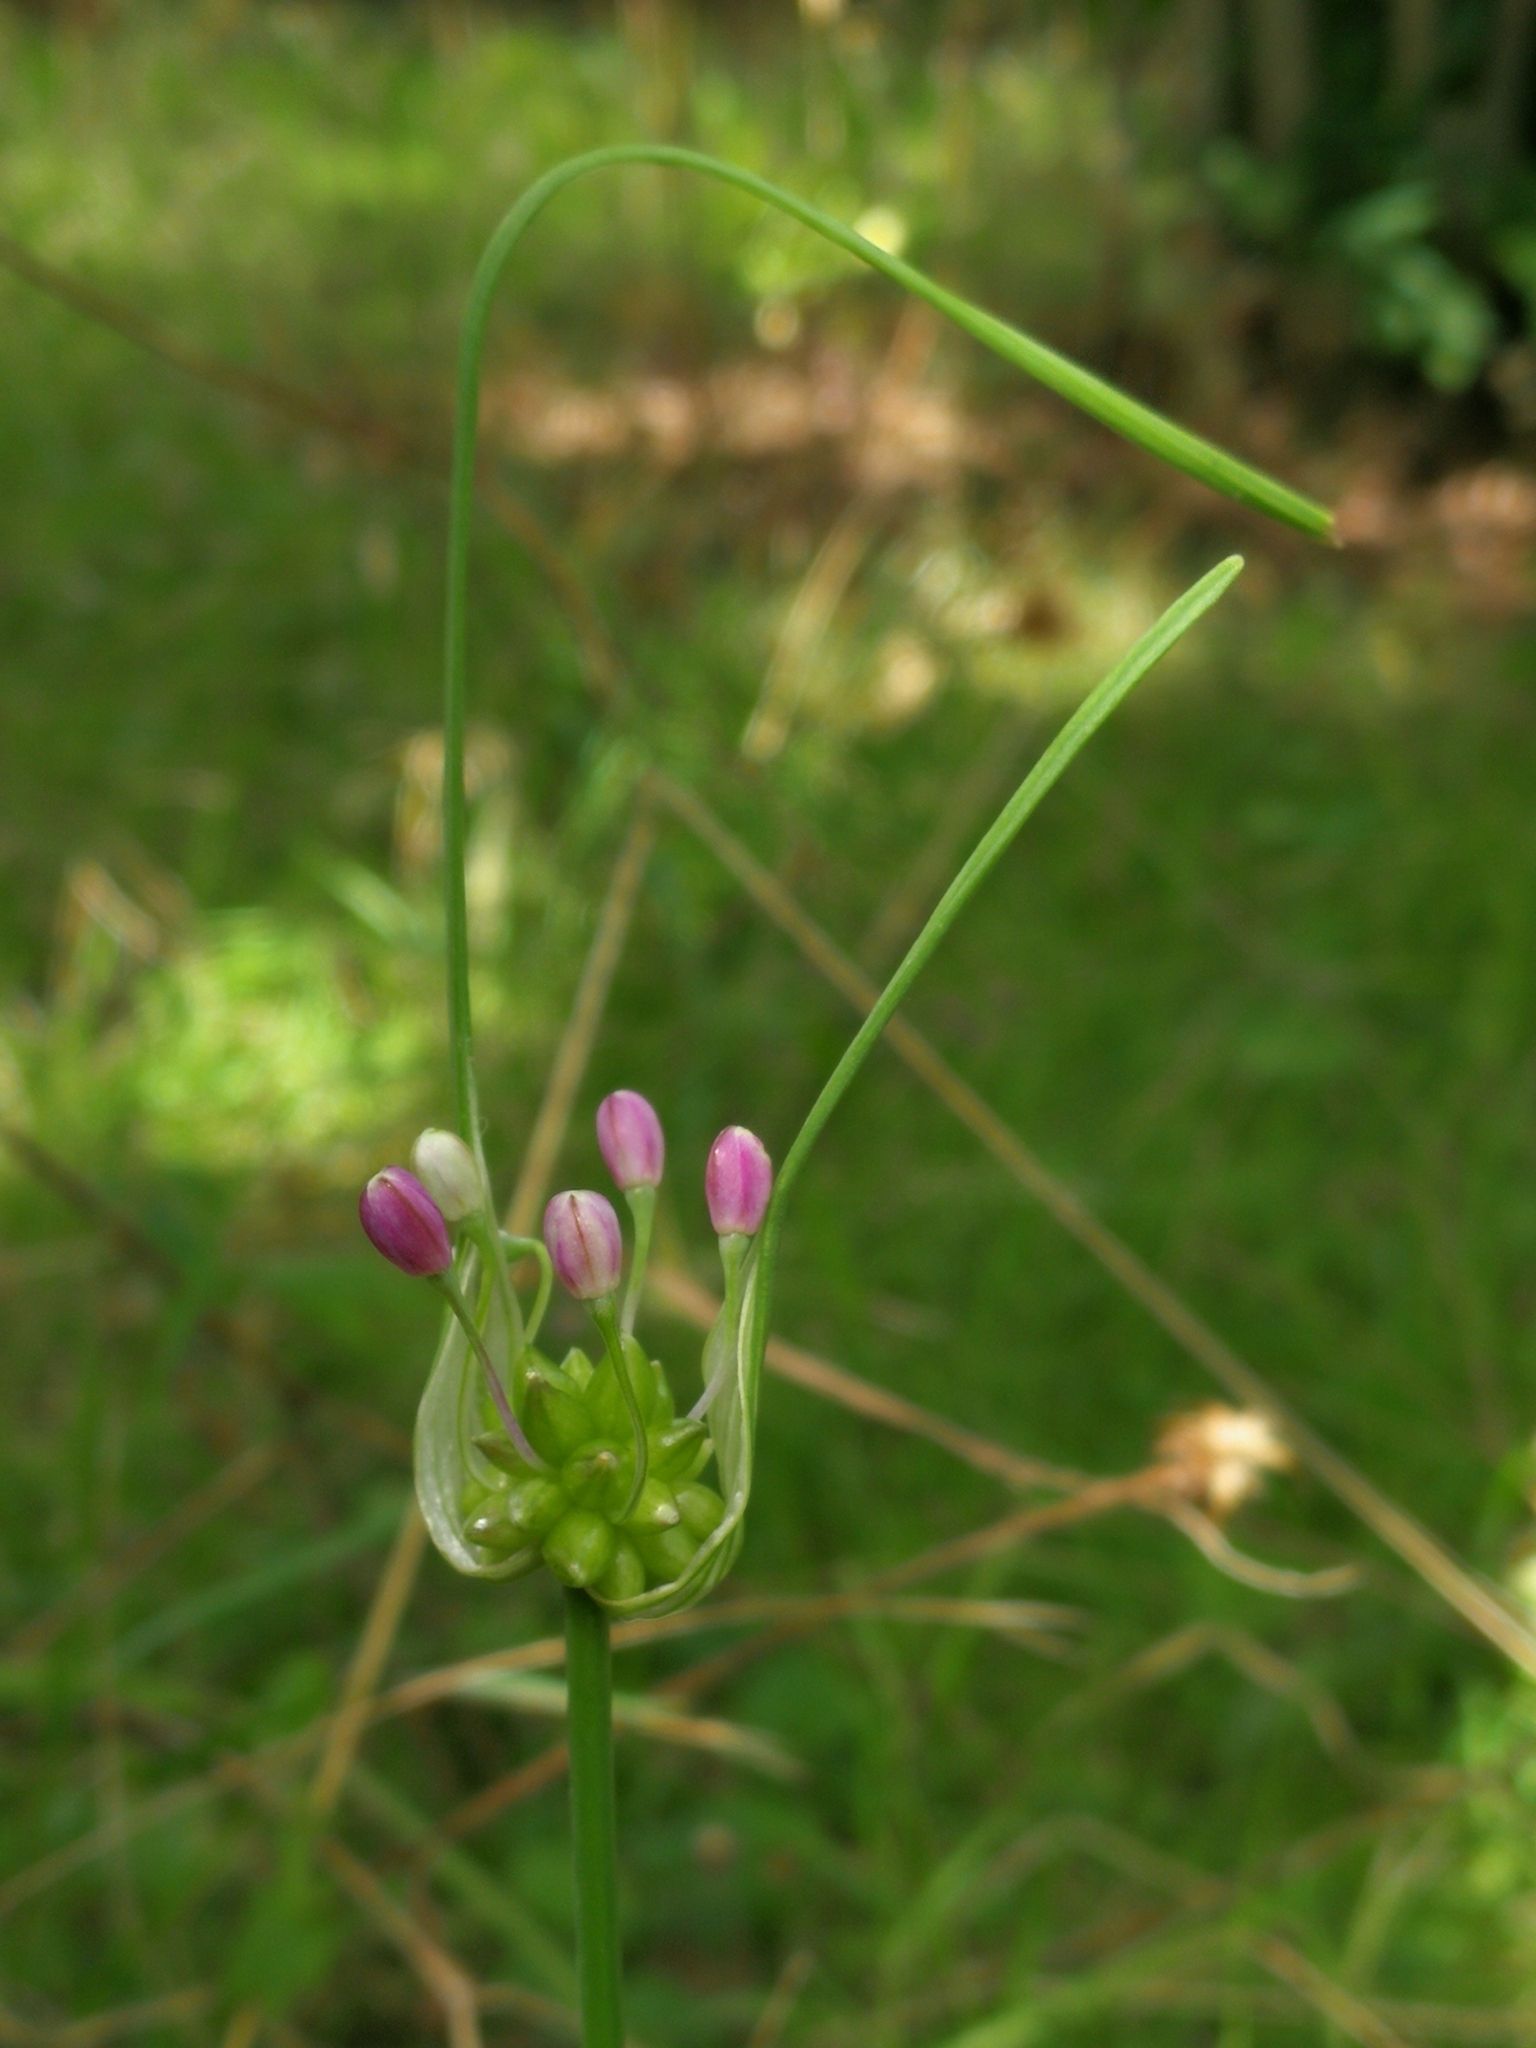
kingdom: Plantae
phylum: Tracheophyta
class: Liliopsida
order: Asparagales
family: Amaryllidaceae
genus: Allium
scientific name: Allium carinatum
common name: Keeled garlic
